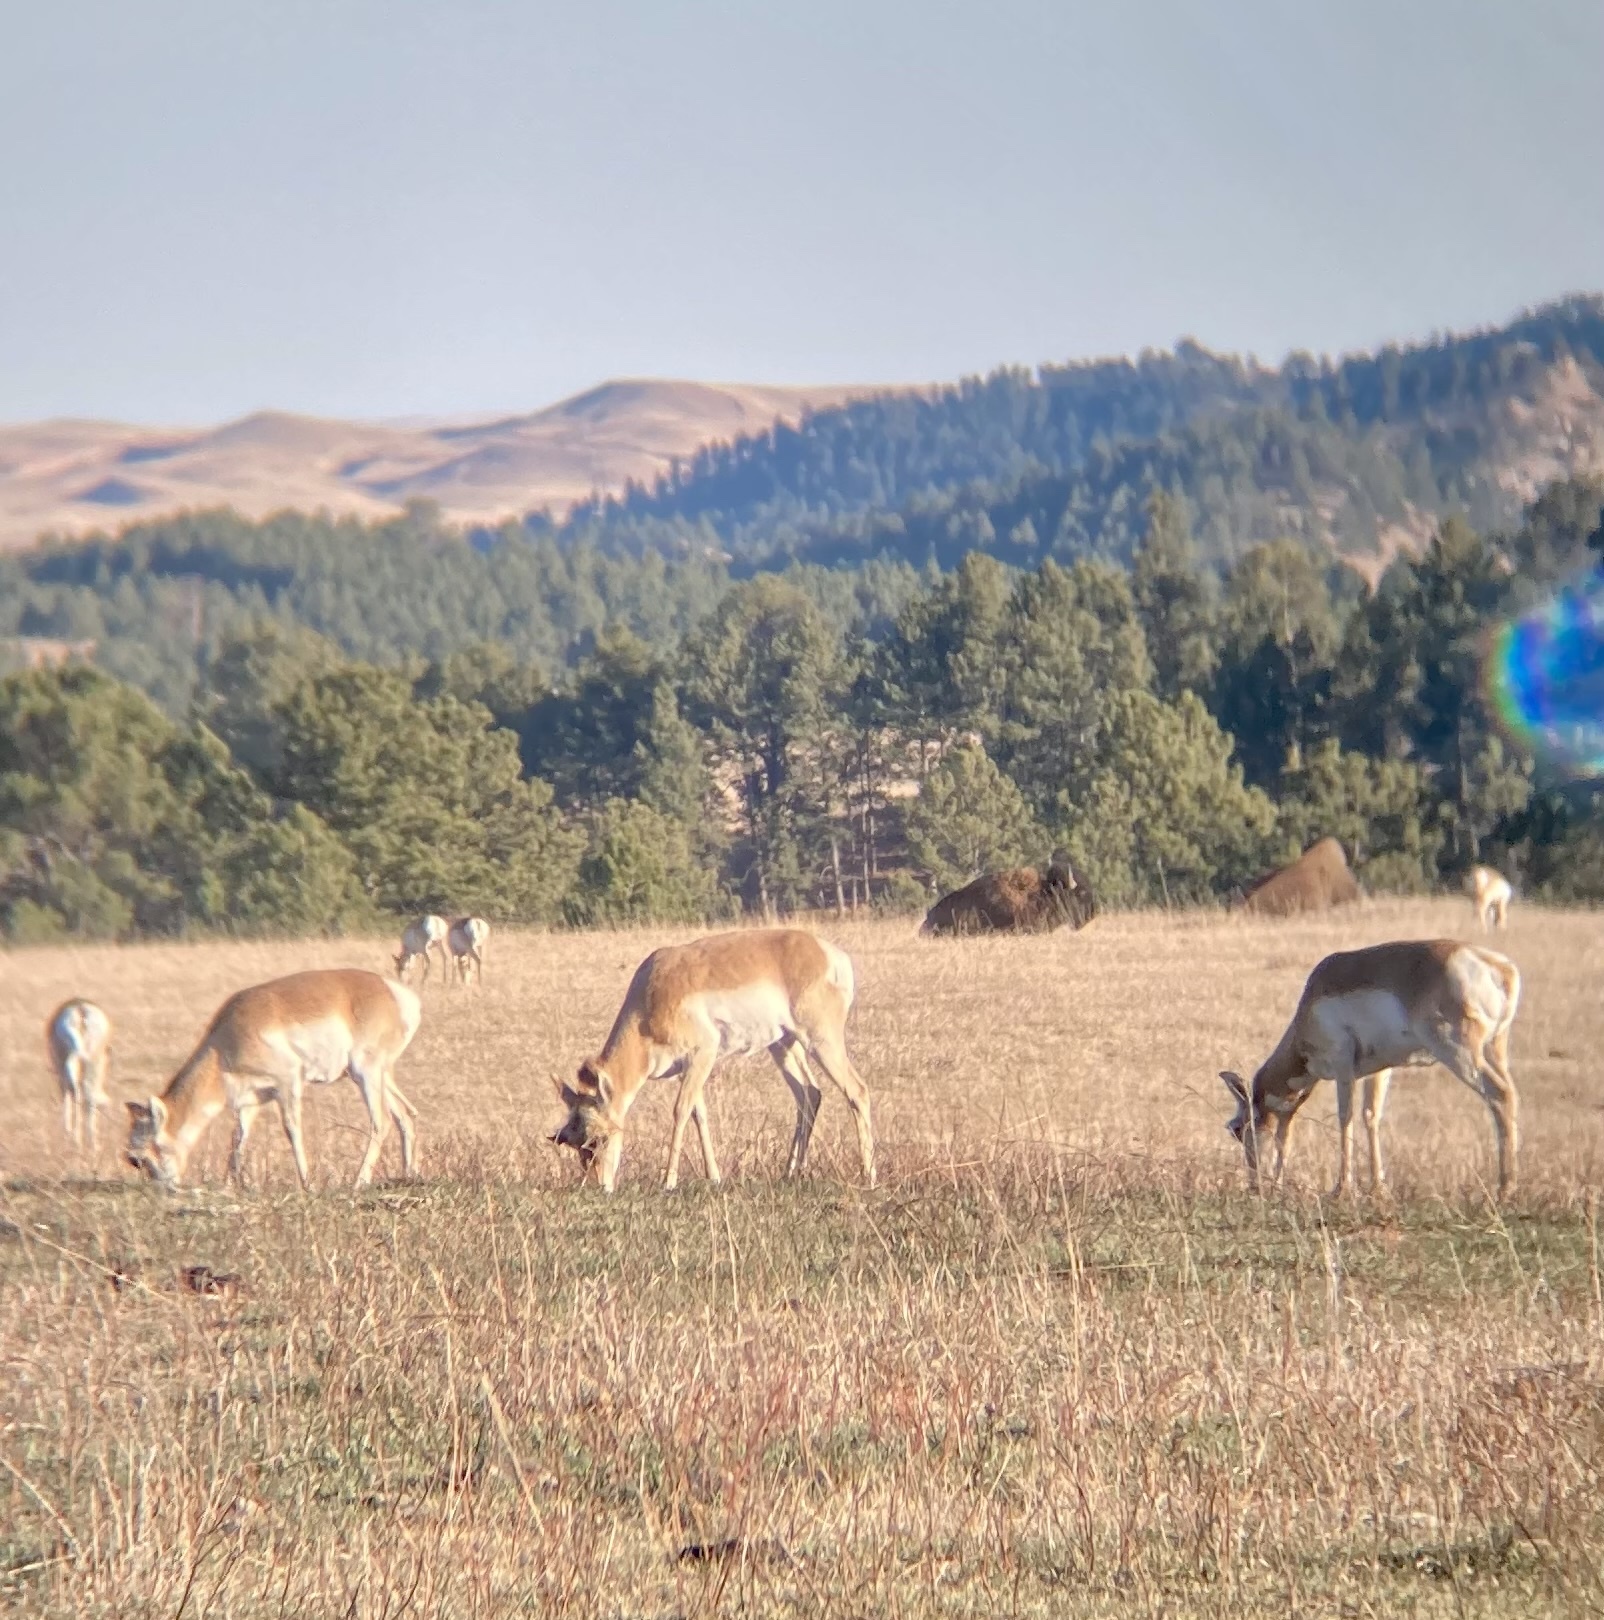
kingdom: Animalia
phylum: Chordata
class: Mammalia
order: Artiodactyla
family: Antilocapridae
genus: Antilocapra
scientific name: Antilocapra americana
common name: Pronghorn
